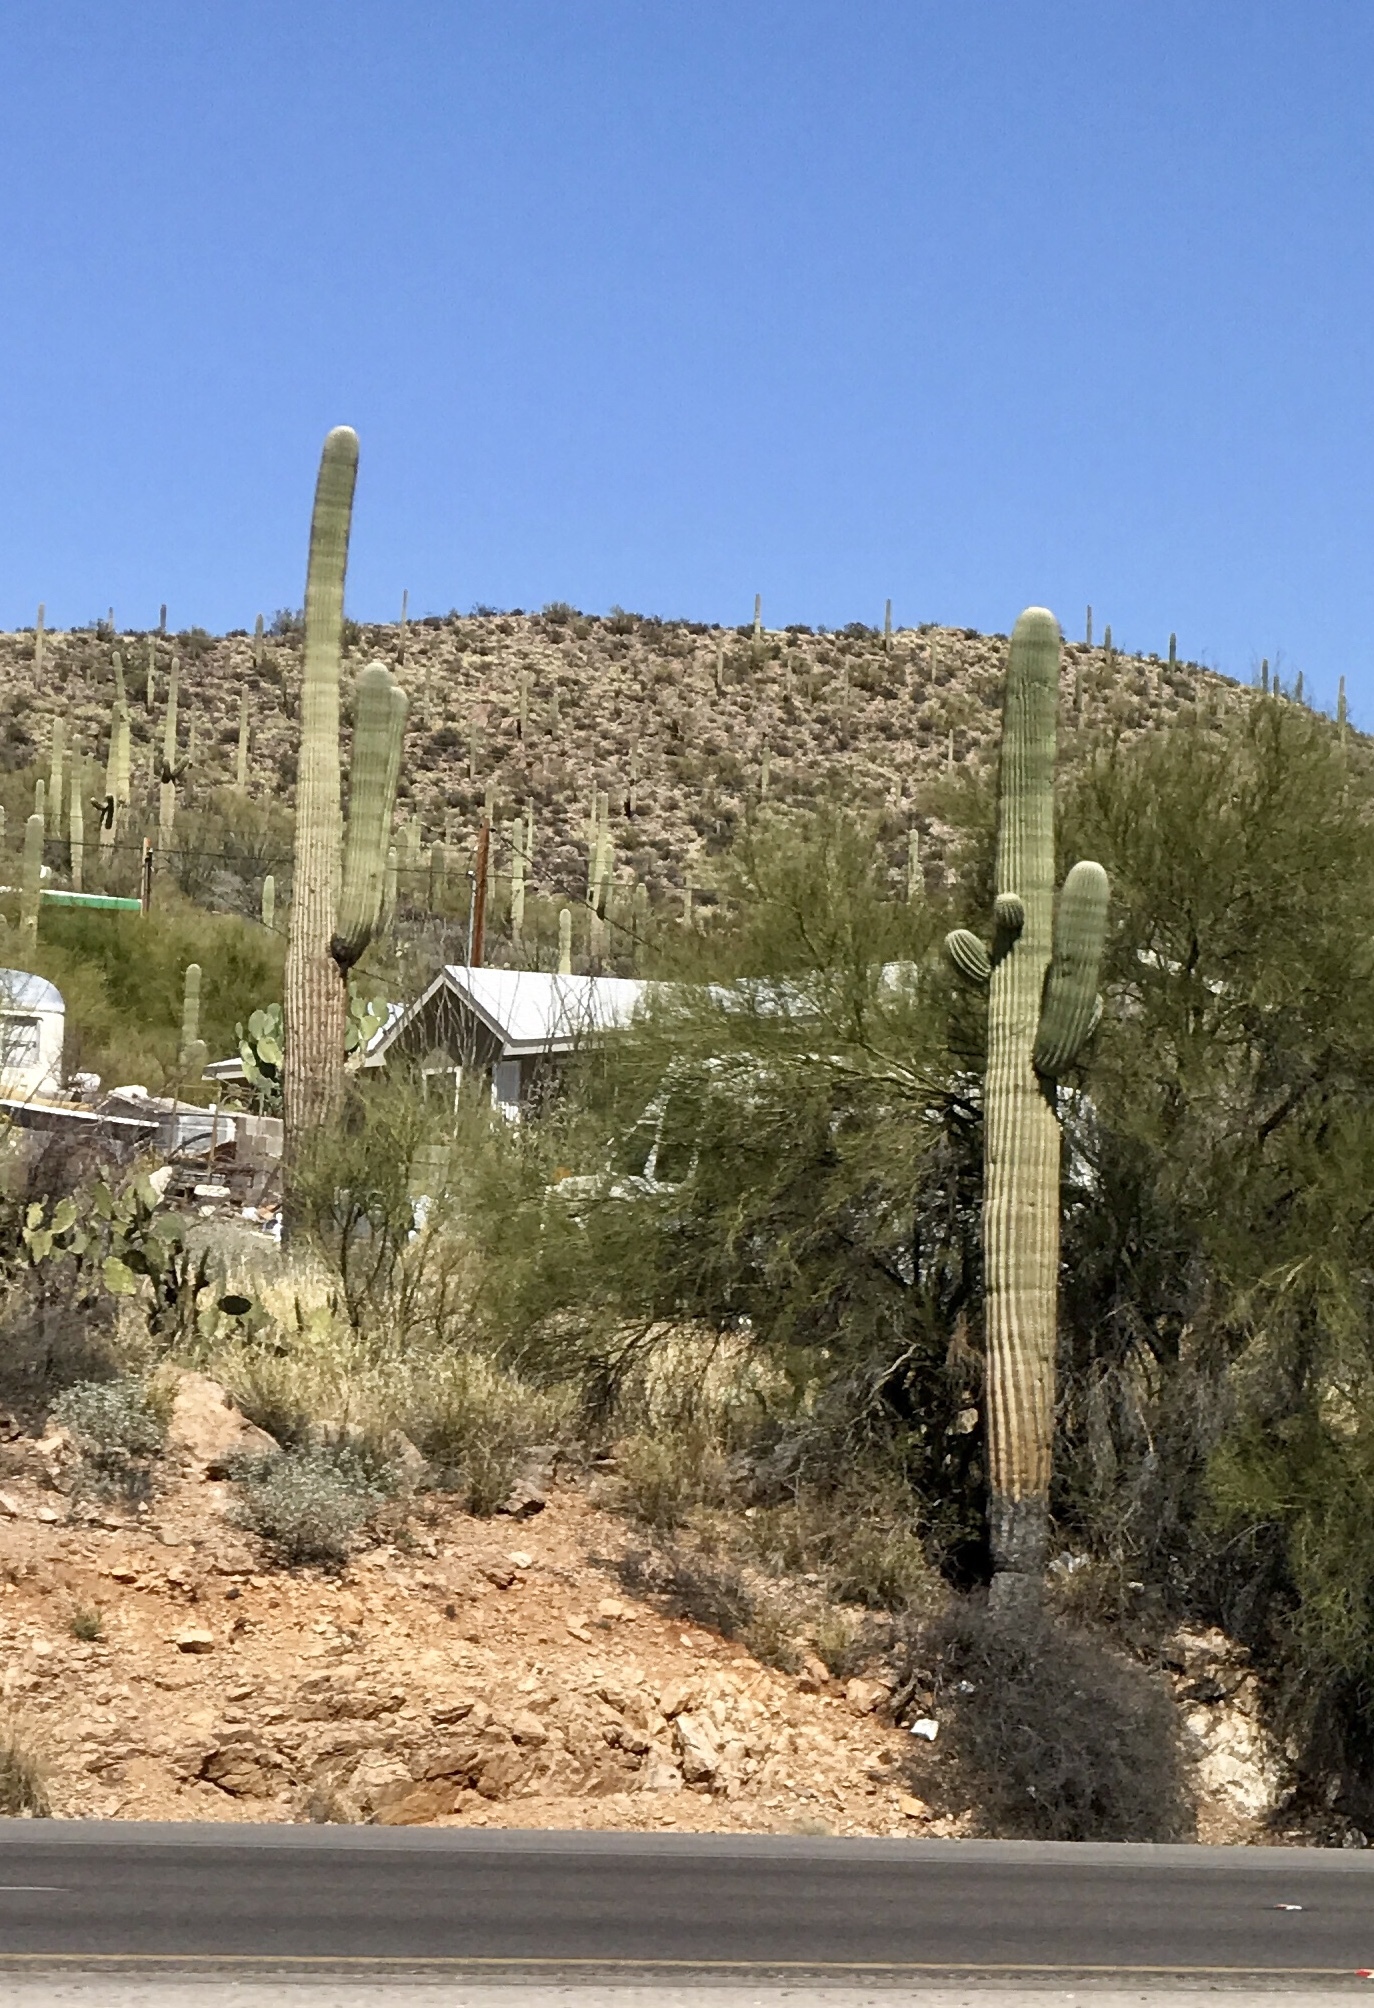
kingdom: Plantae
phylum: Tracheophyta
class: Magnoliopsida
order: Caryophyllales
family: Cactaceae
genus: Carnegiea
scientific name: Carnegiea gigantea
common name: Saguaro
